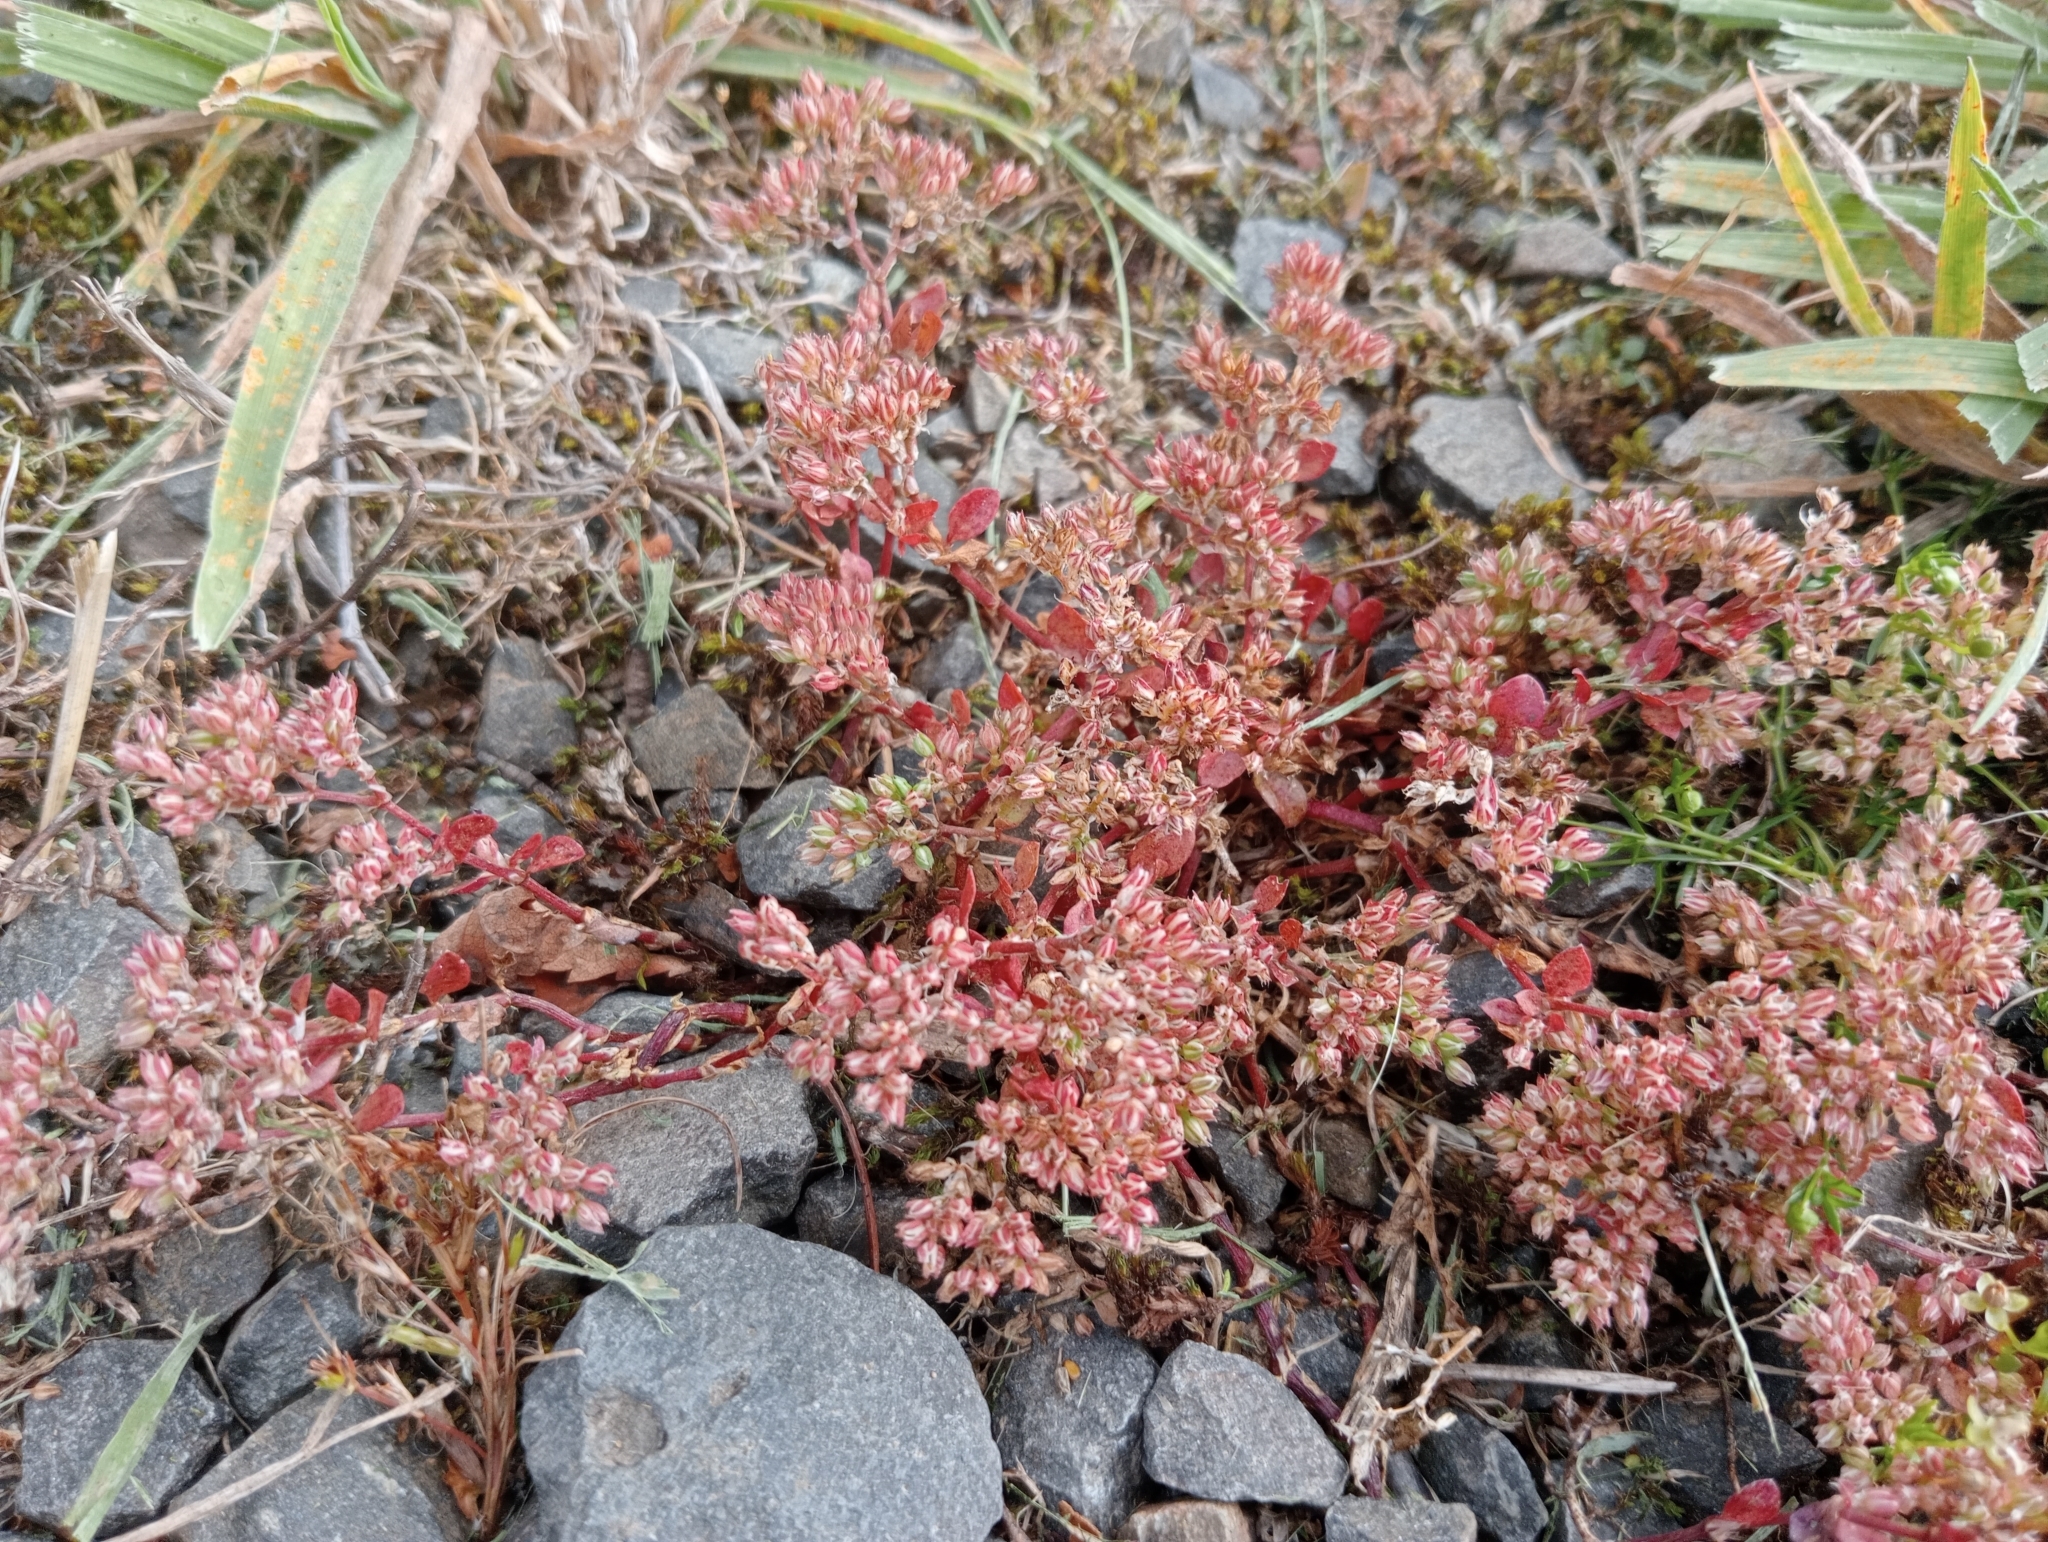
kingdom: Plantae
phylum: Tracheophyta
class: Magnoliopsida
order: Caryophyllales
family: Caryophyllaceae
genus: Polycarpon
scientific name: Polycarpon tetraphyllum
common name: Four-leaved all-seed
